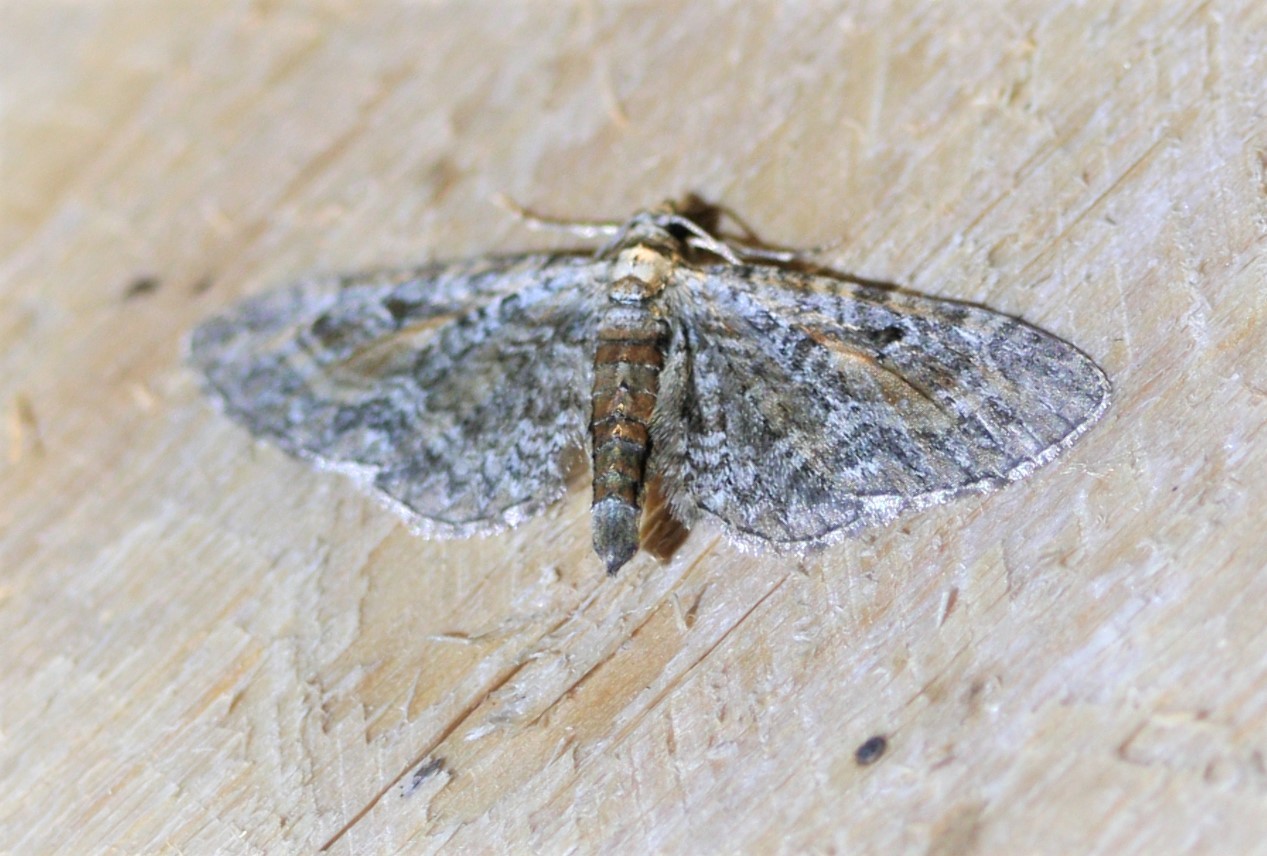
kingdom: Animalia
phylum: Arthropoda
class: Insecta
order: Lepidoptera
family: Geometridae
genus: Eupithecia
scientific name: Eupithecia icterata
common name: Tawny speckled pug
